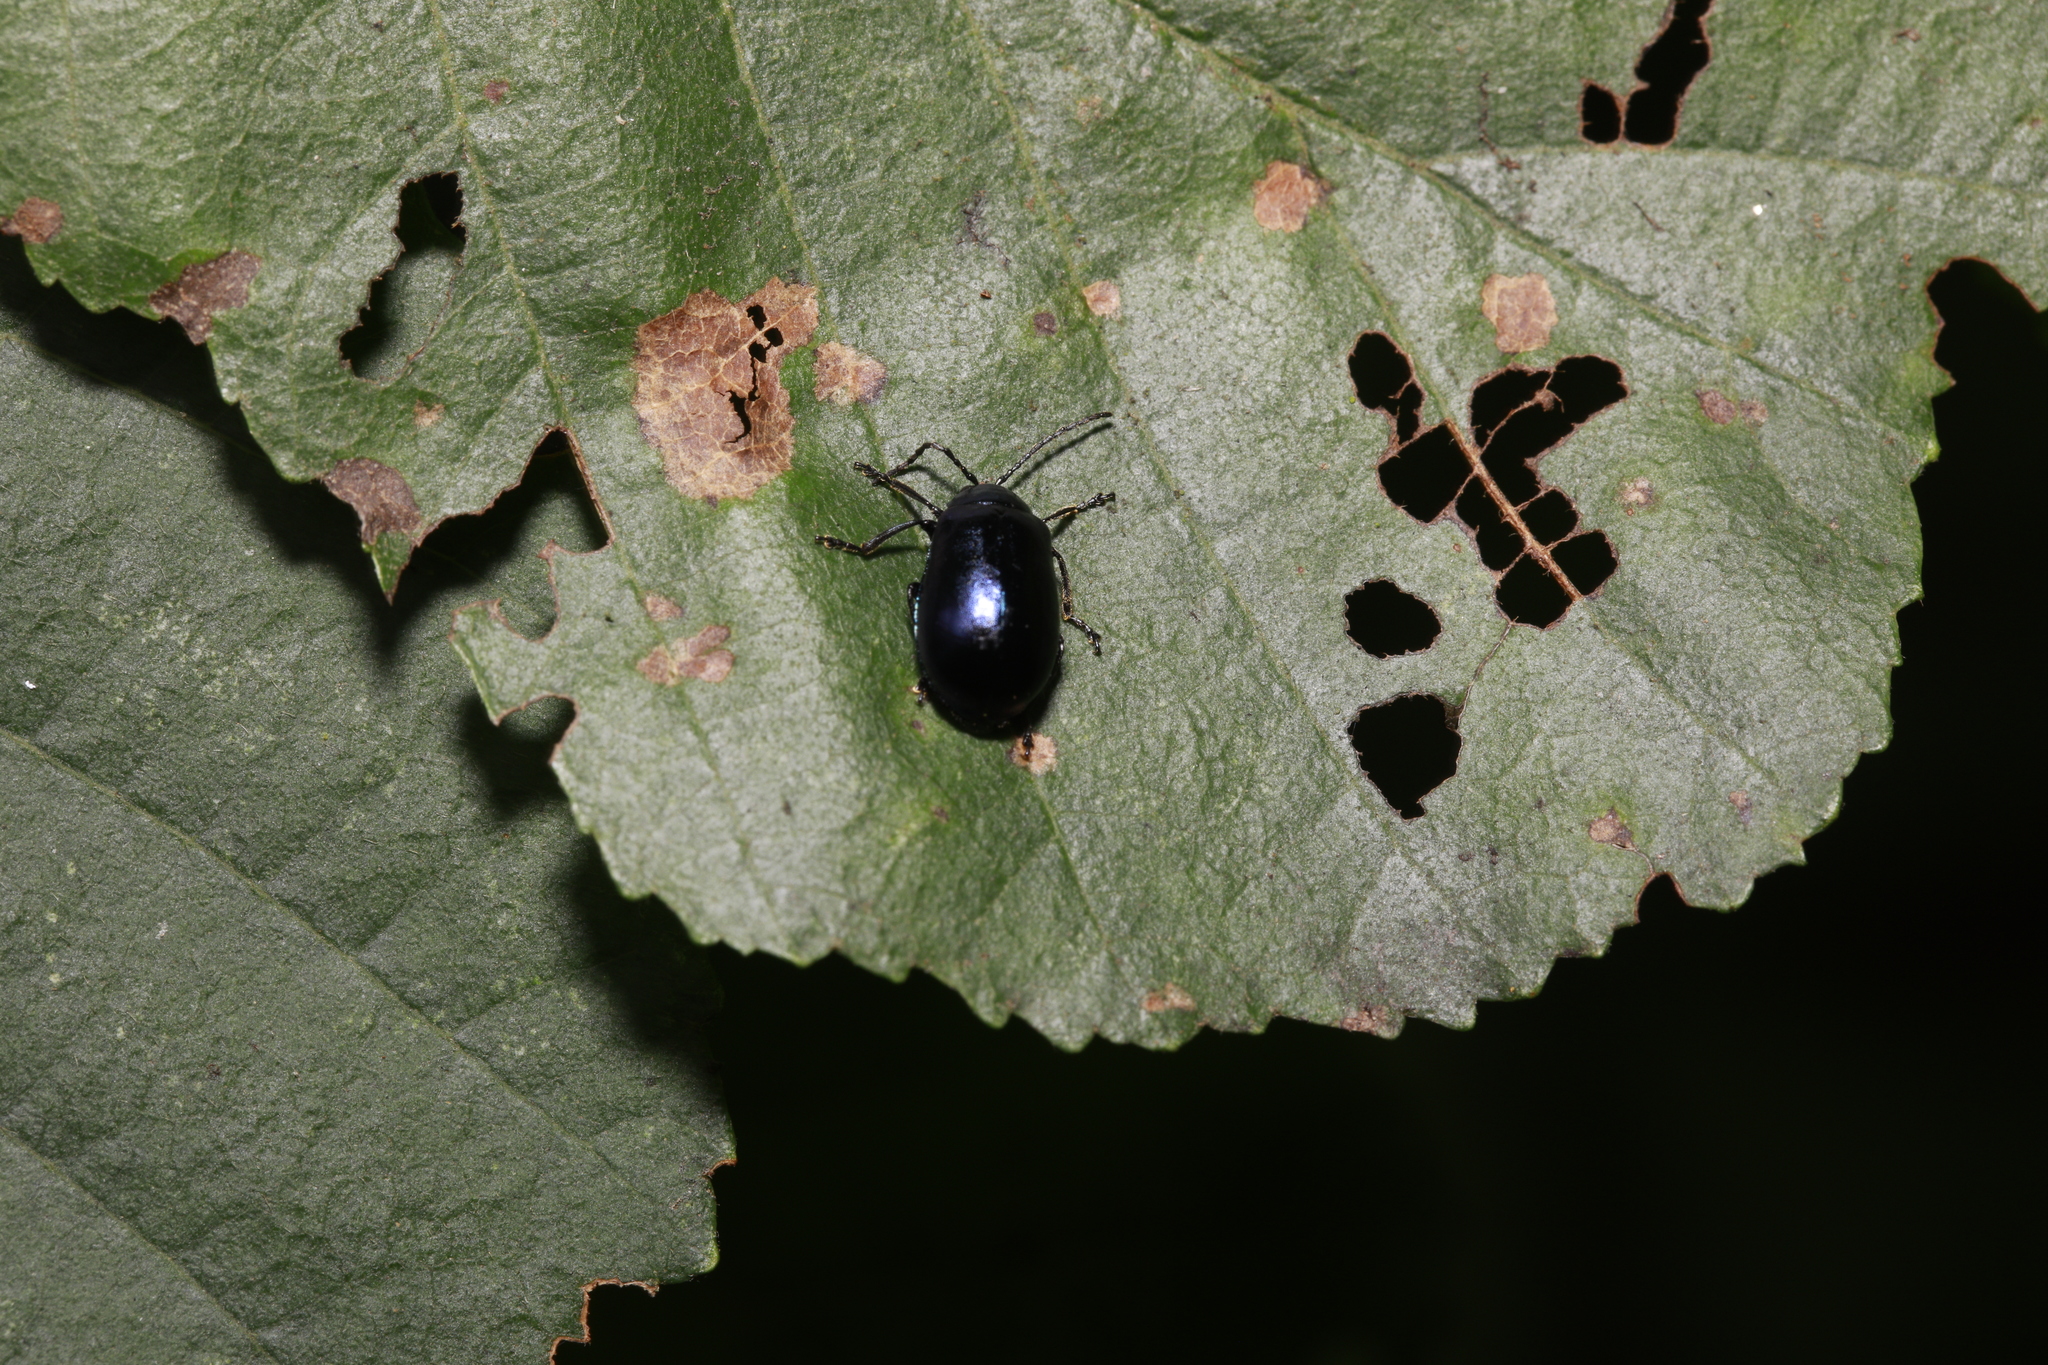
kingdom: Animalia
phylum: Arthropoda
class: Insecta
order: Coleoptera
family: Chrysomelidae
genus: Agelastica
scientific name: Agelastica alni
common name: Alder leaf beetle
